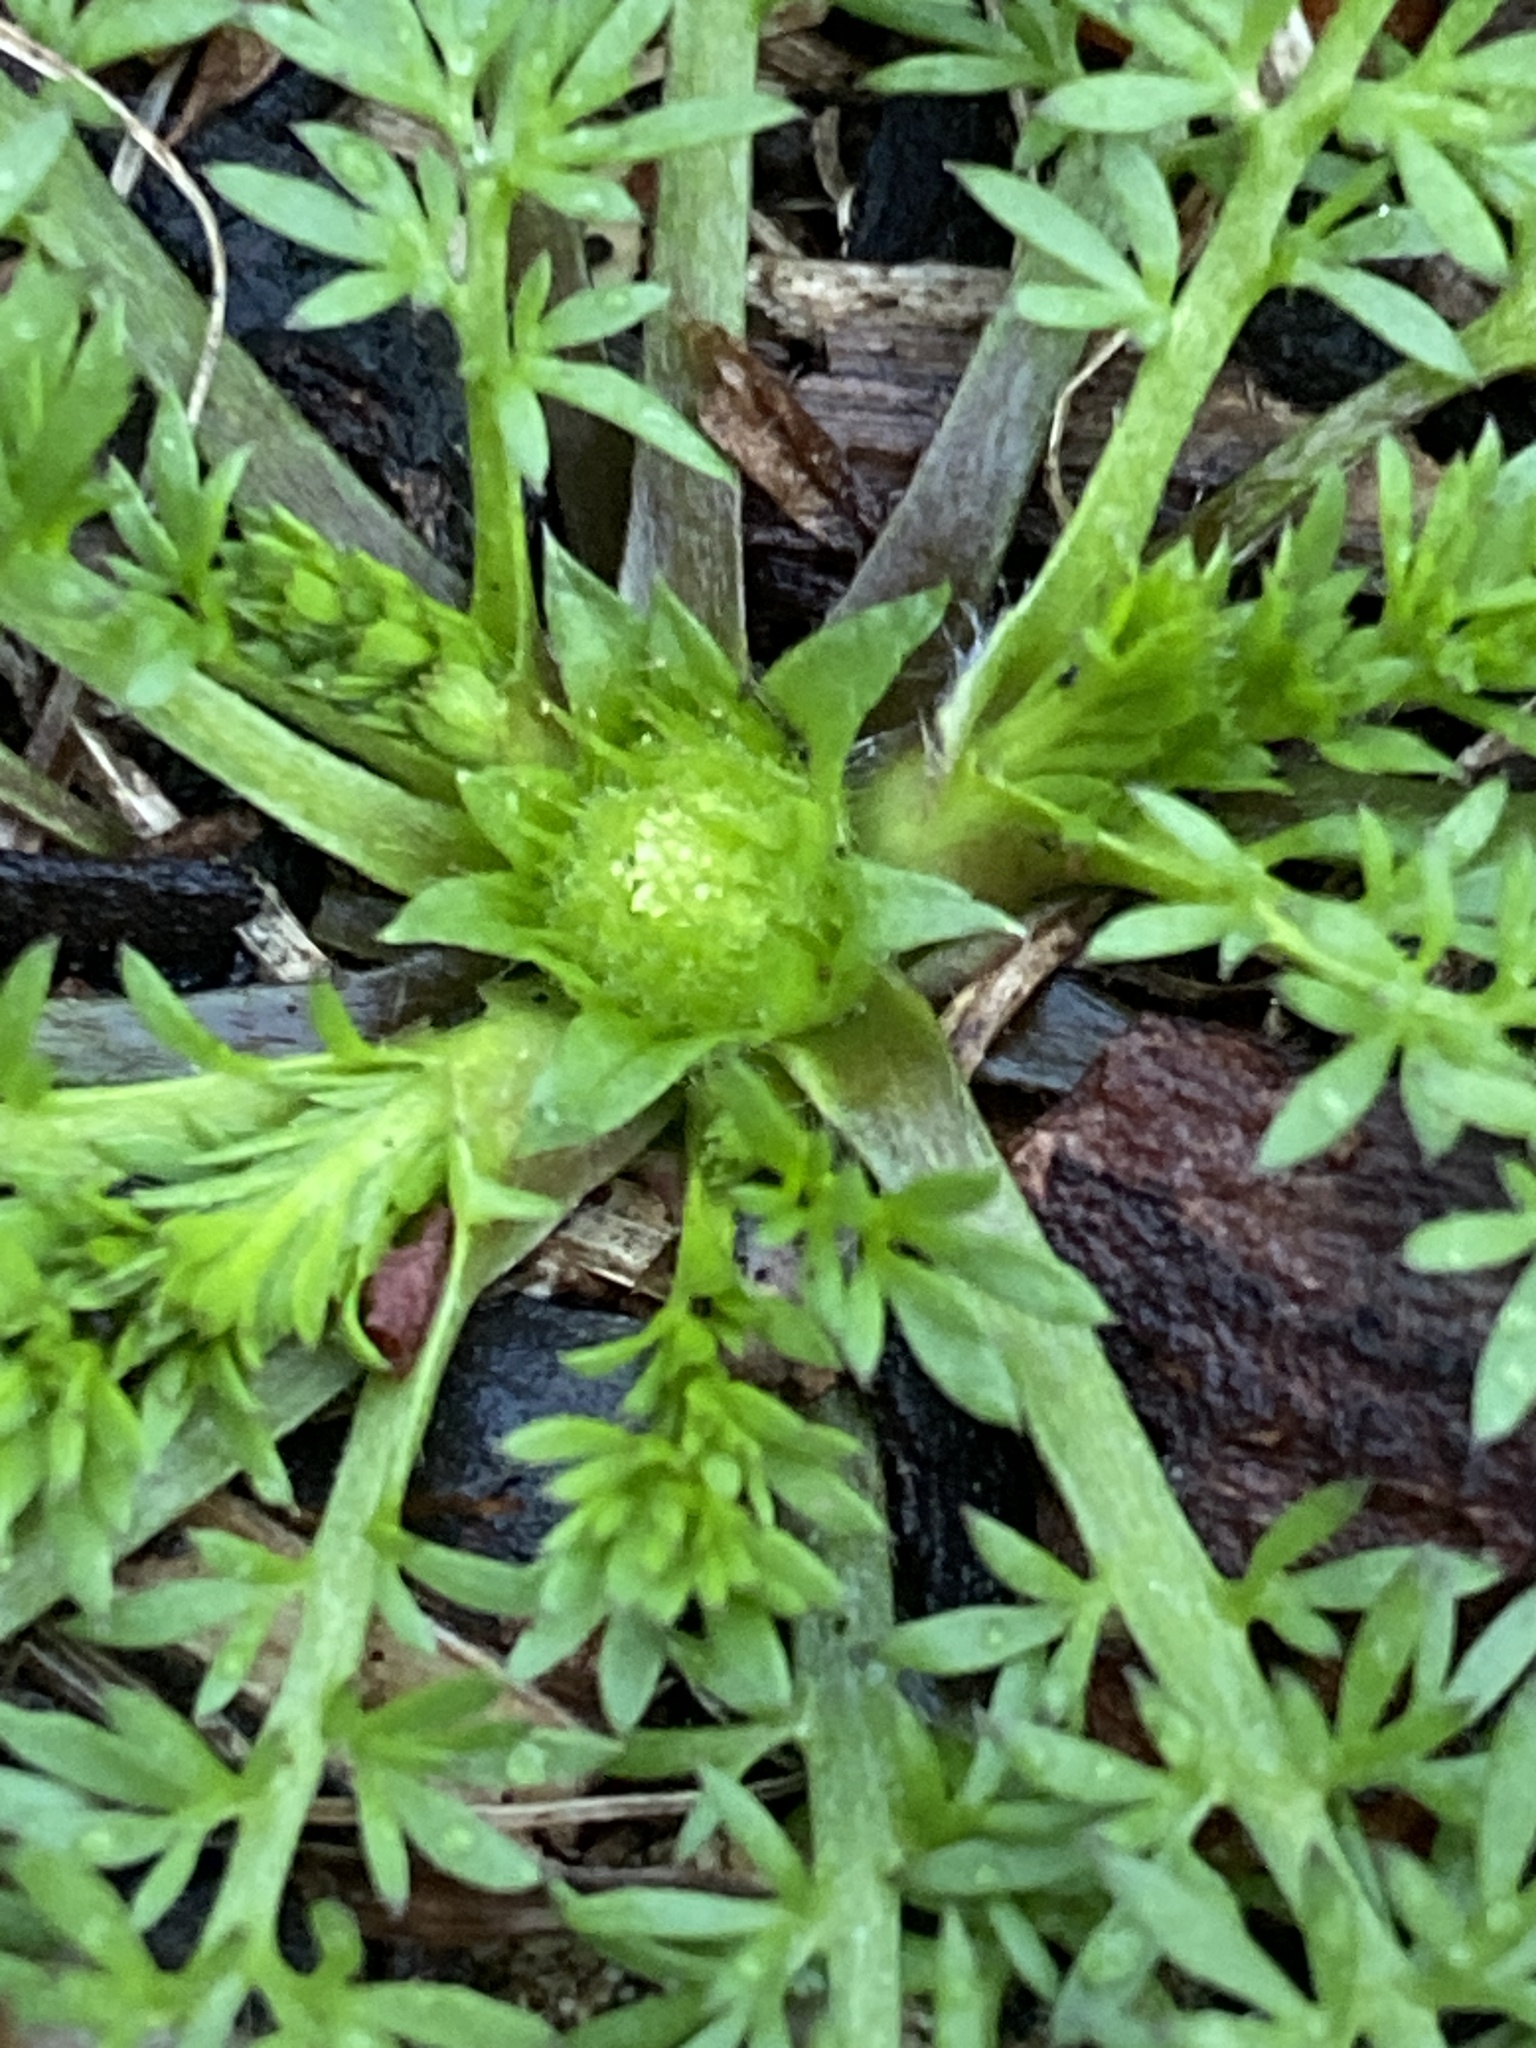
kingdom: Plantae
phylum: Tracheophyta
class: Magnoliopsida
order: Asterales
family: Asteraceae
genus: Soliva
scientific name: Soliva sessilis
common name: Field burrweed
